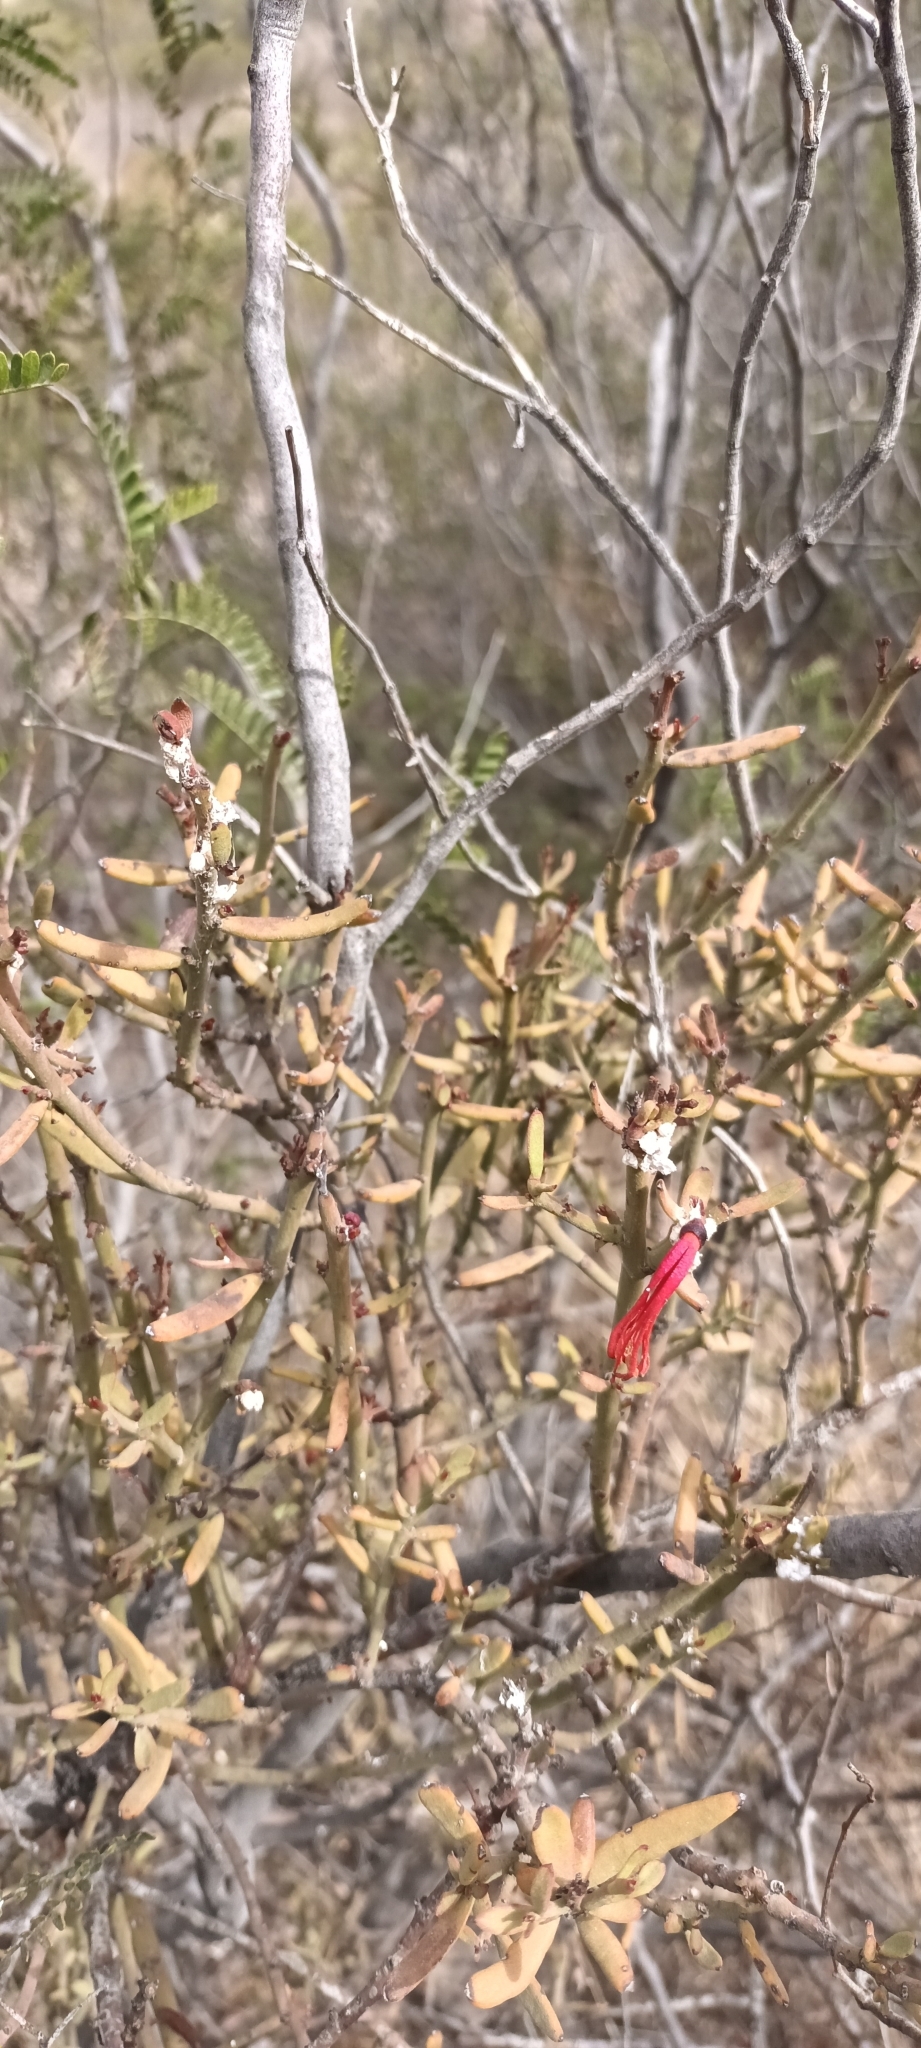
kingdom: Plantae
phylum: Tracheophyta
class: Magnoliopsida
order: Santalales
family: Loranthaceae
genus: Ligaria
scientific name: Ligaria cuneifolia
